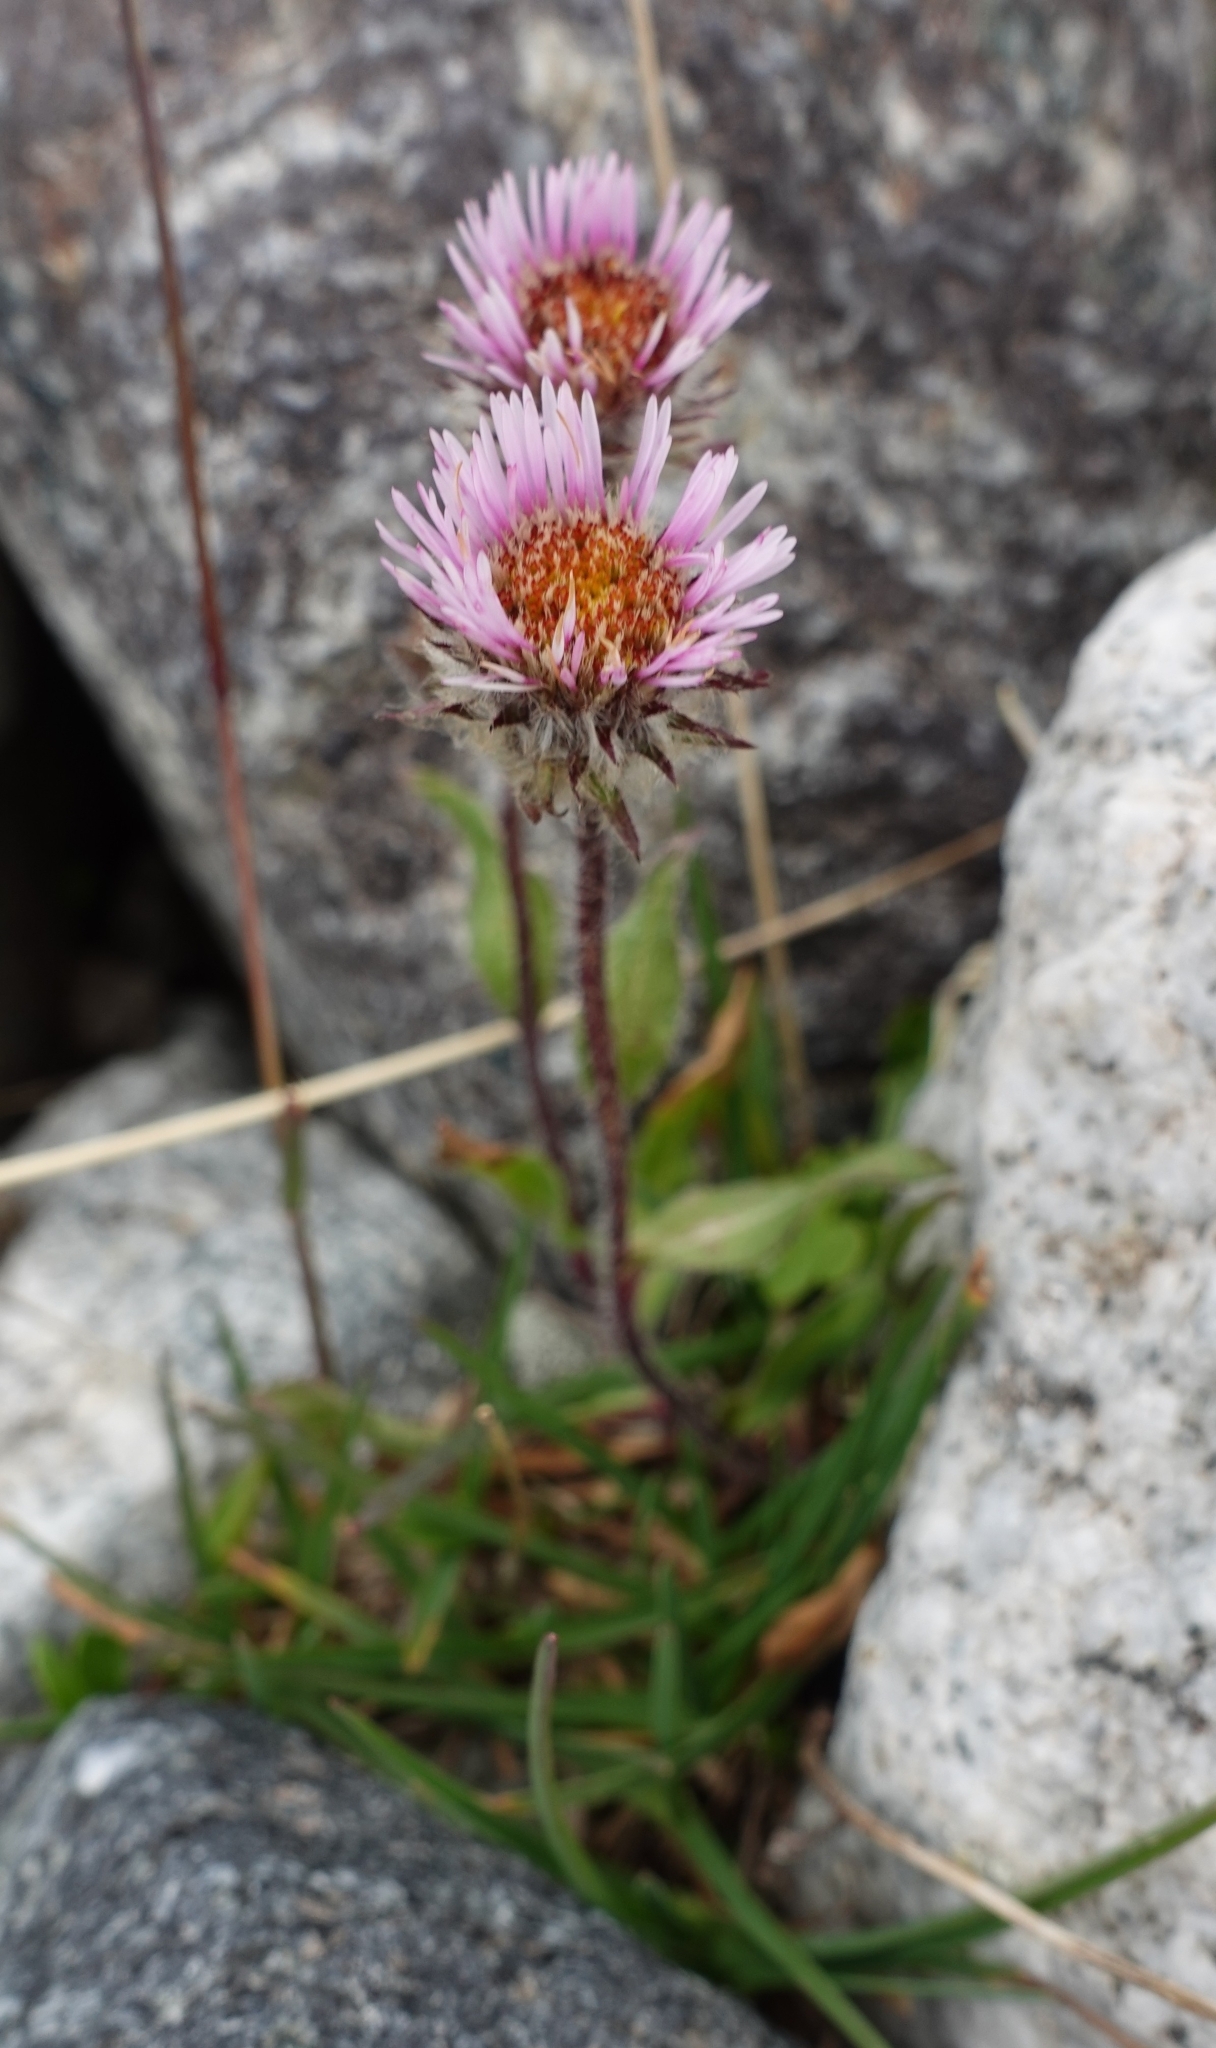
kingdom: Plantae
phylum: Tracheophyta
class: Magnoliopsida
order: Asterales
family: Asteraceae
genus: Erigeron
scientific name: Erigeron uniflorus
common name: Northern daisy
